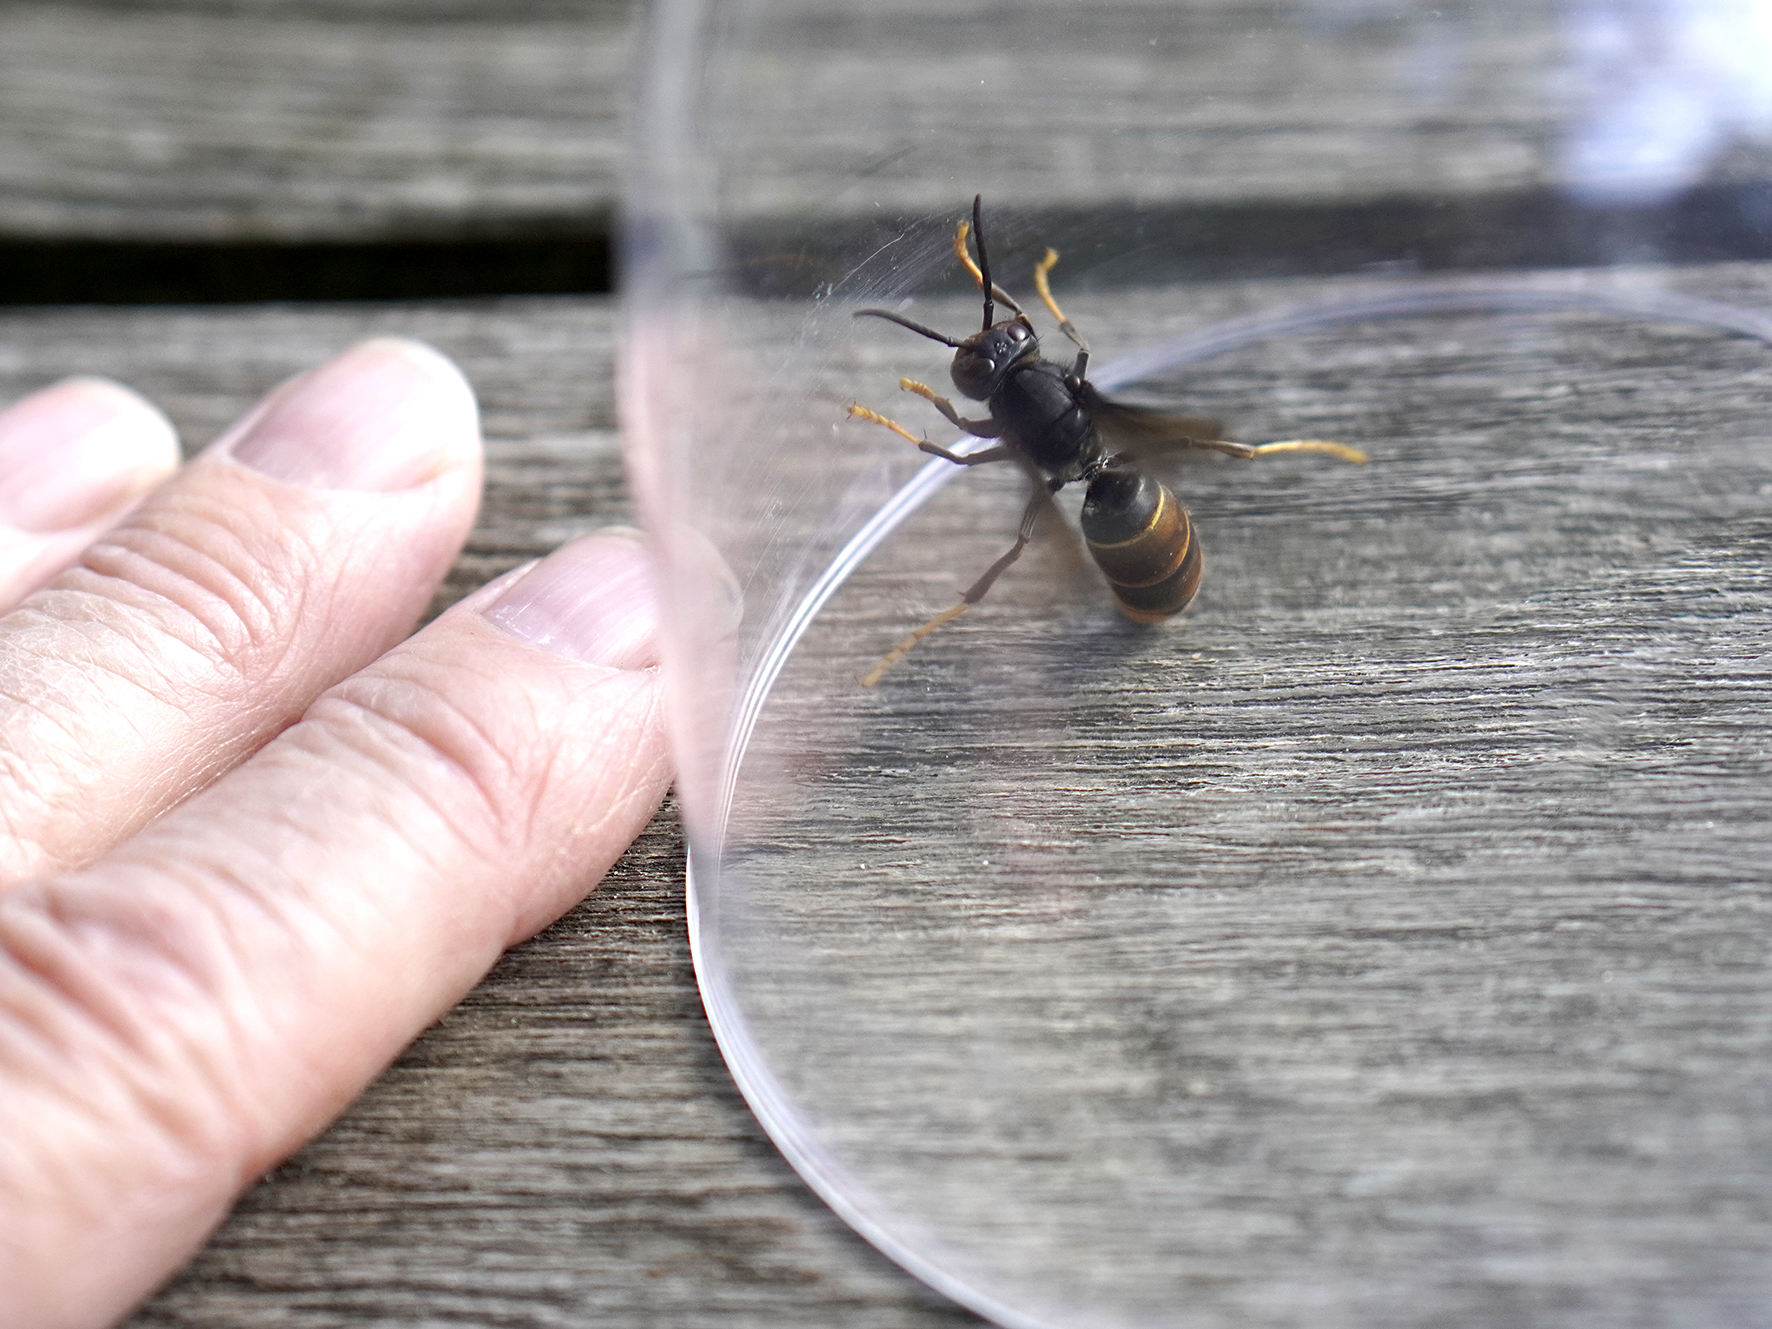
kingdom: Animalia
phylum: Arthropoda
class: Insecta
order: Hymenoptera
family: Vespidae
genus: Vespa
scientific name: Vespa velutina
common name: Asian hornet
